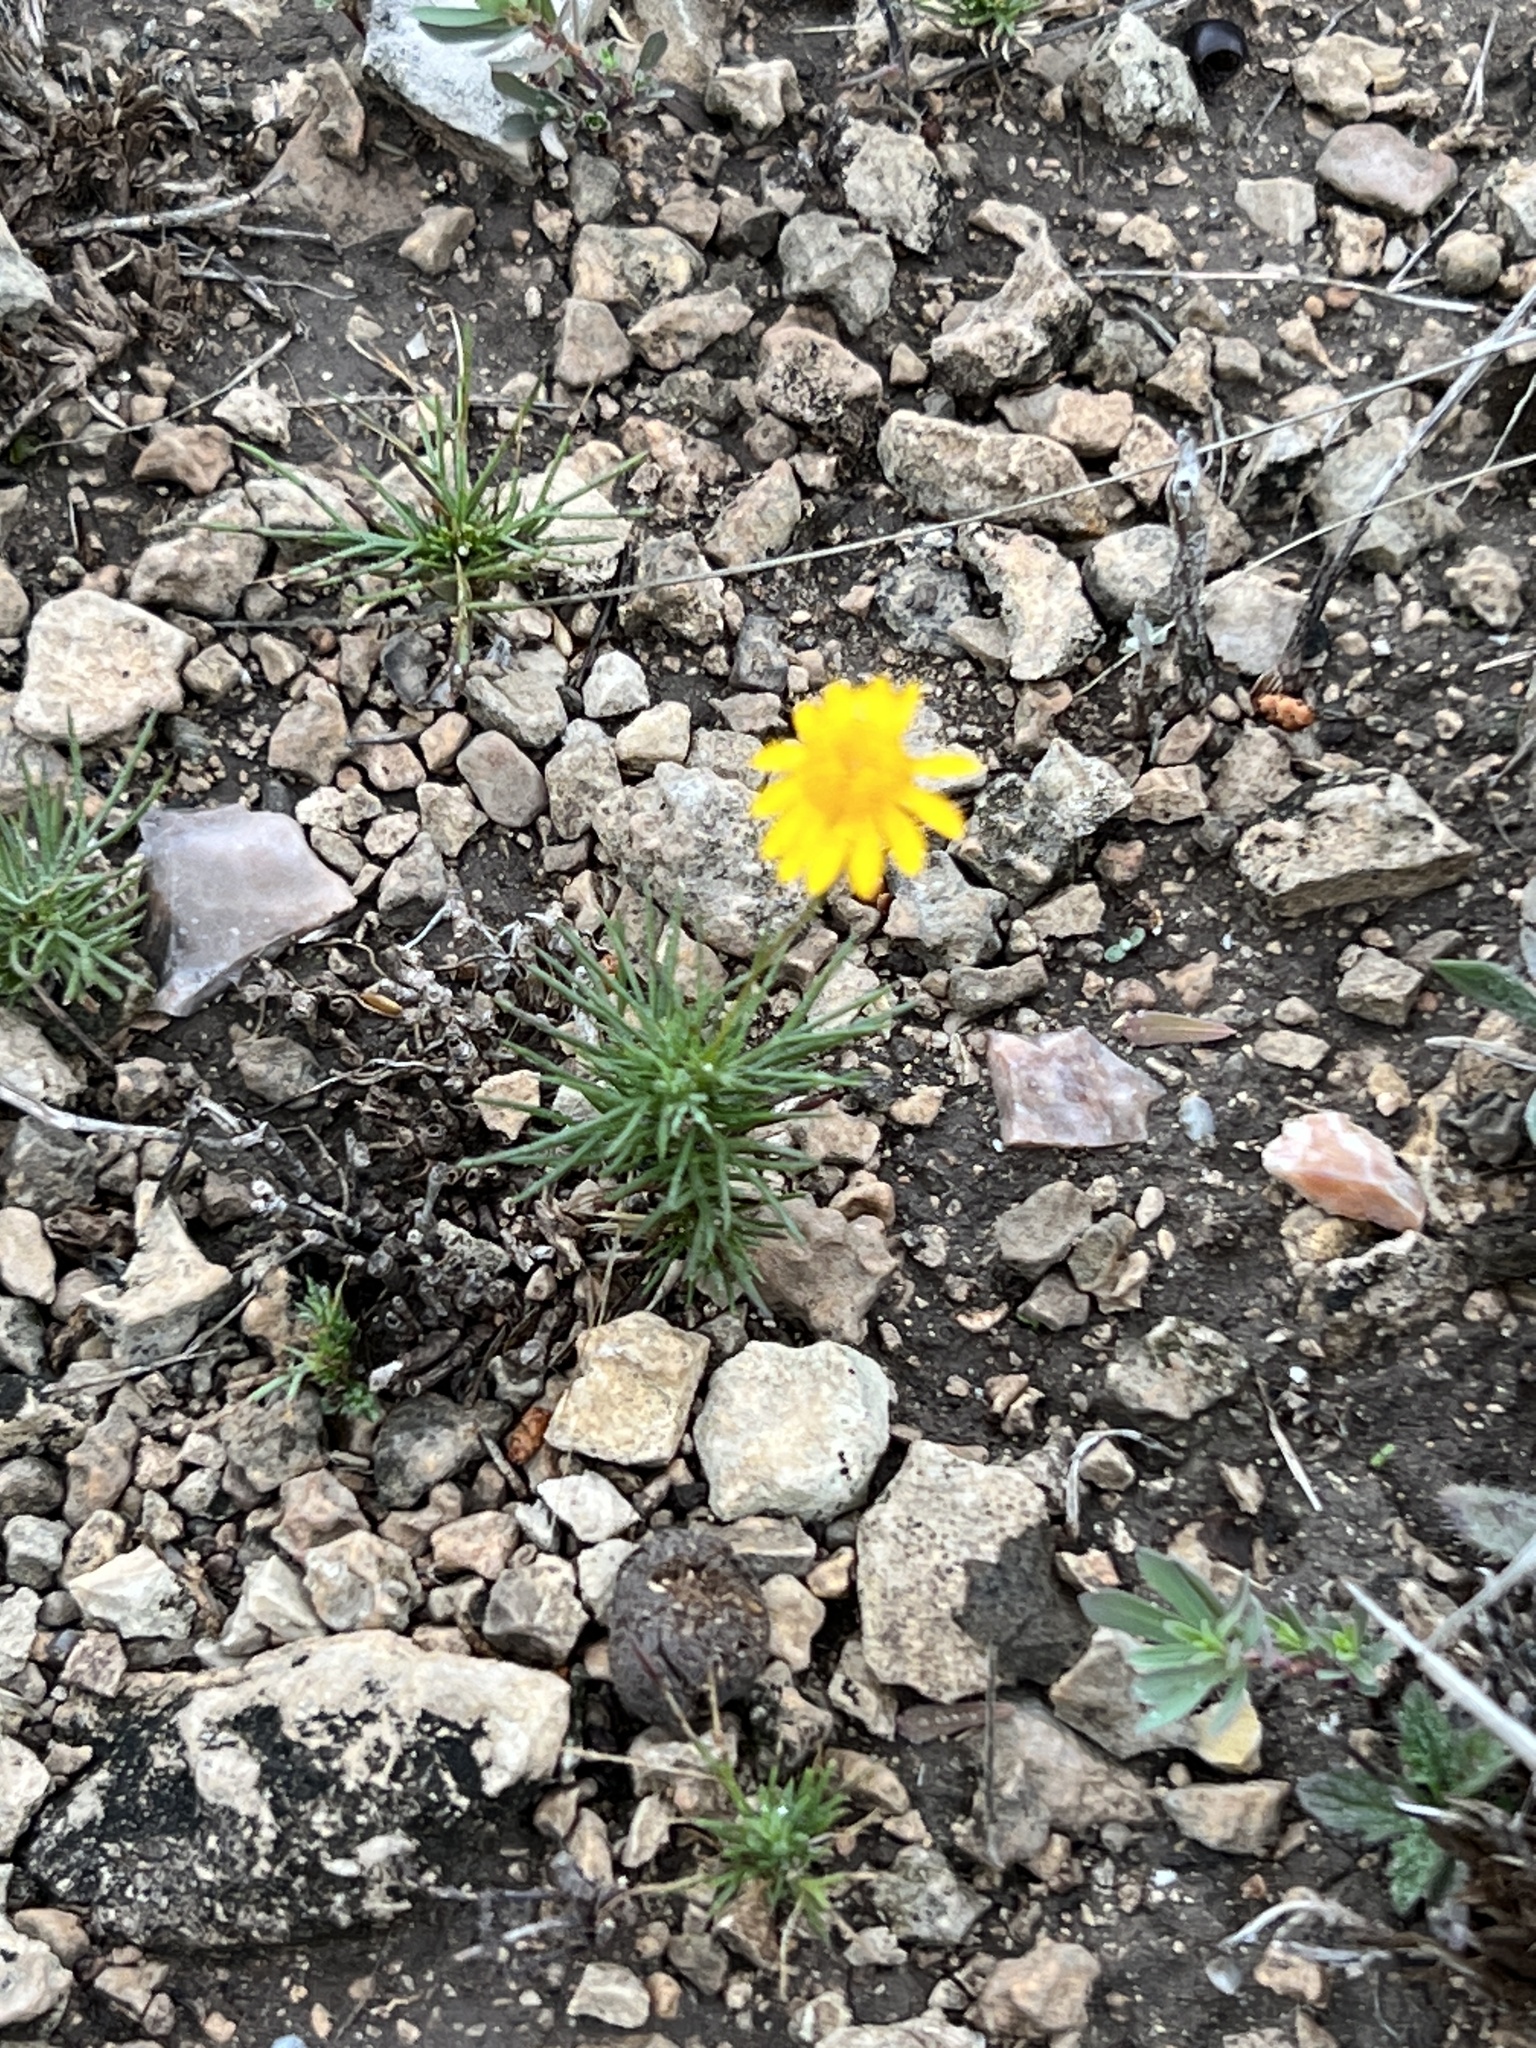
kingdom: Plantae
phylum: Tracheophyta
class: Magnoliopsida
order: Asterales
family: Asteraceae
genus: Thymophylla
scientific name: Thymophylla pentachaeta
